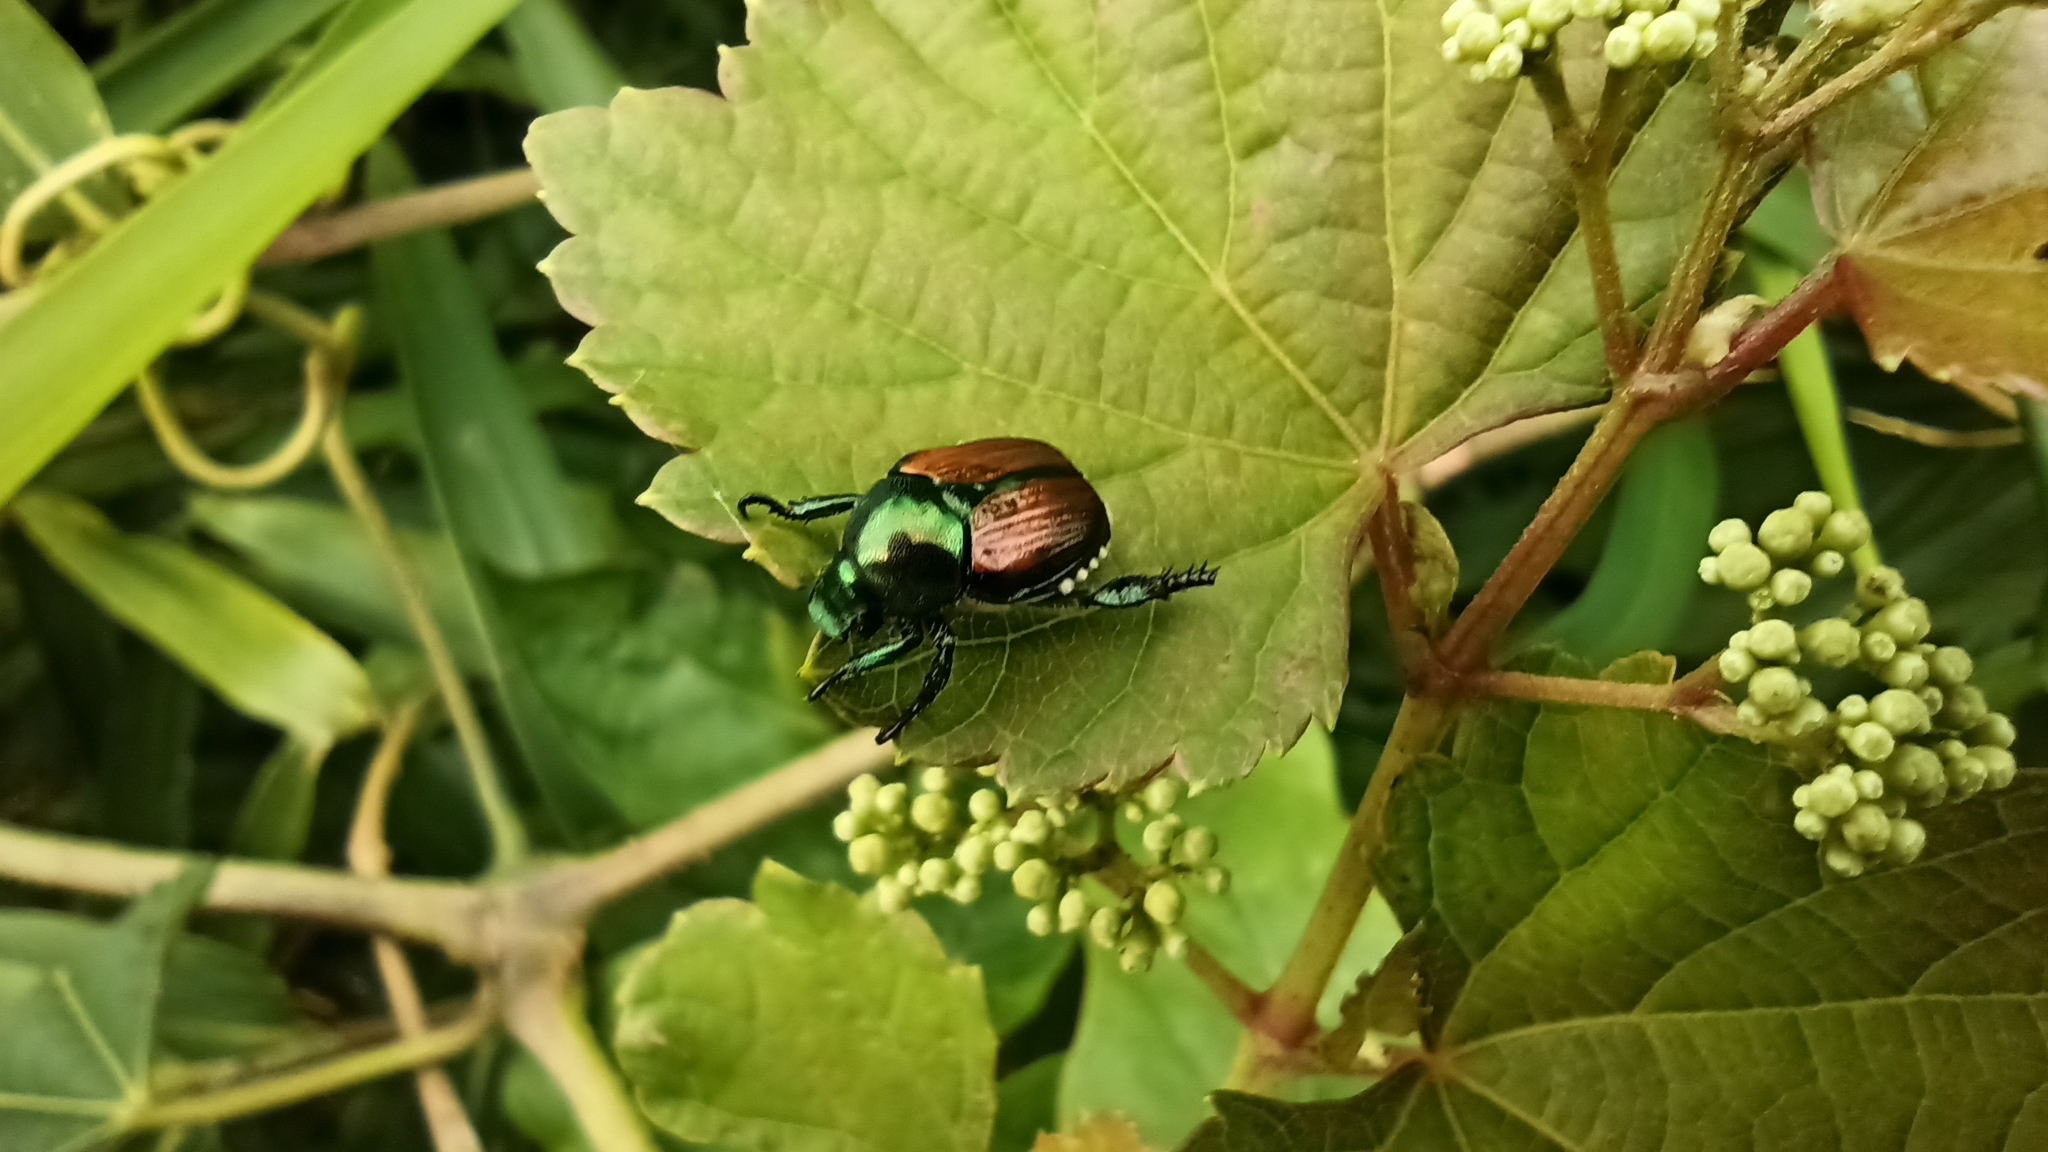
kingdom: Animalia
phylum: Arthropoda
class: Insecta
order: Coleoptera
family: Scarabaeidae
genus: Popillia
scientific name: Popillia japonica
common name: Japanese beetle
